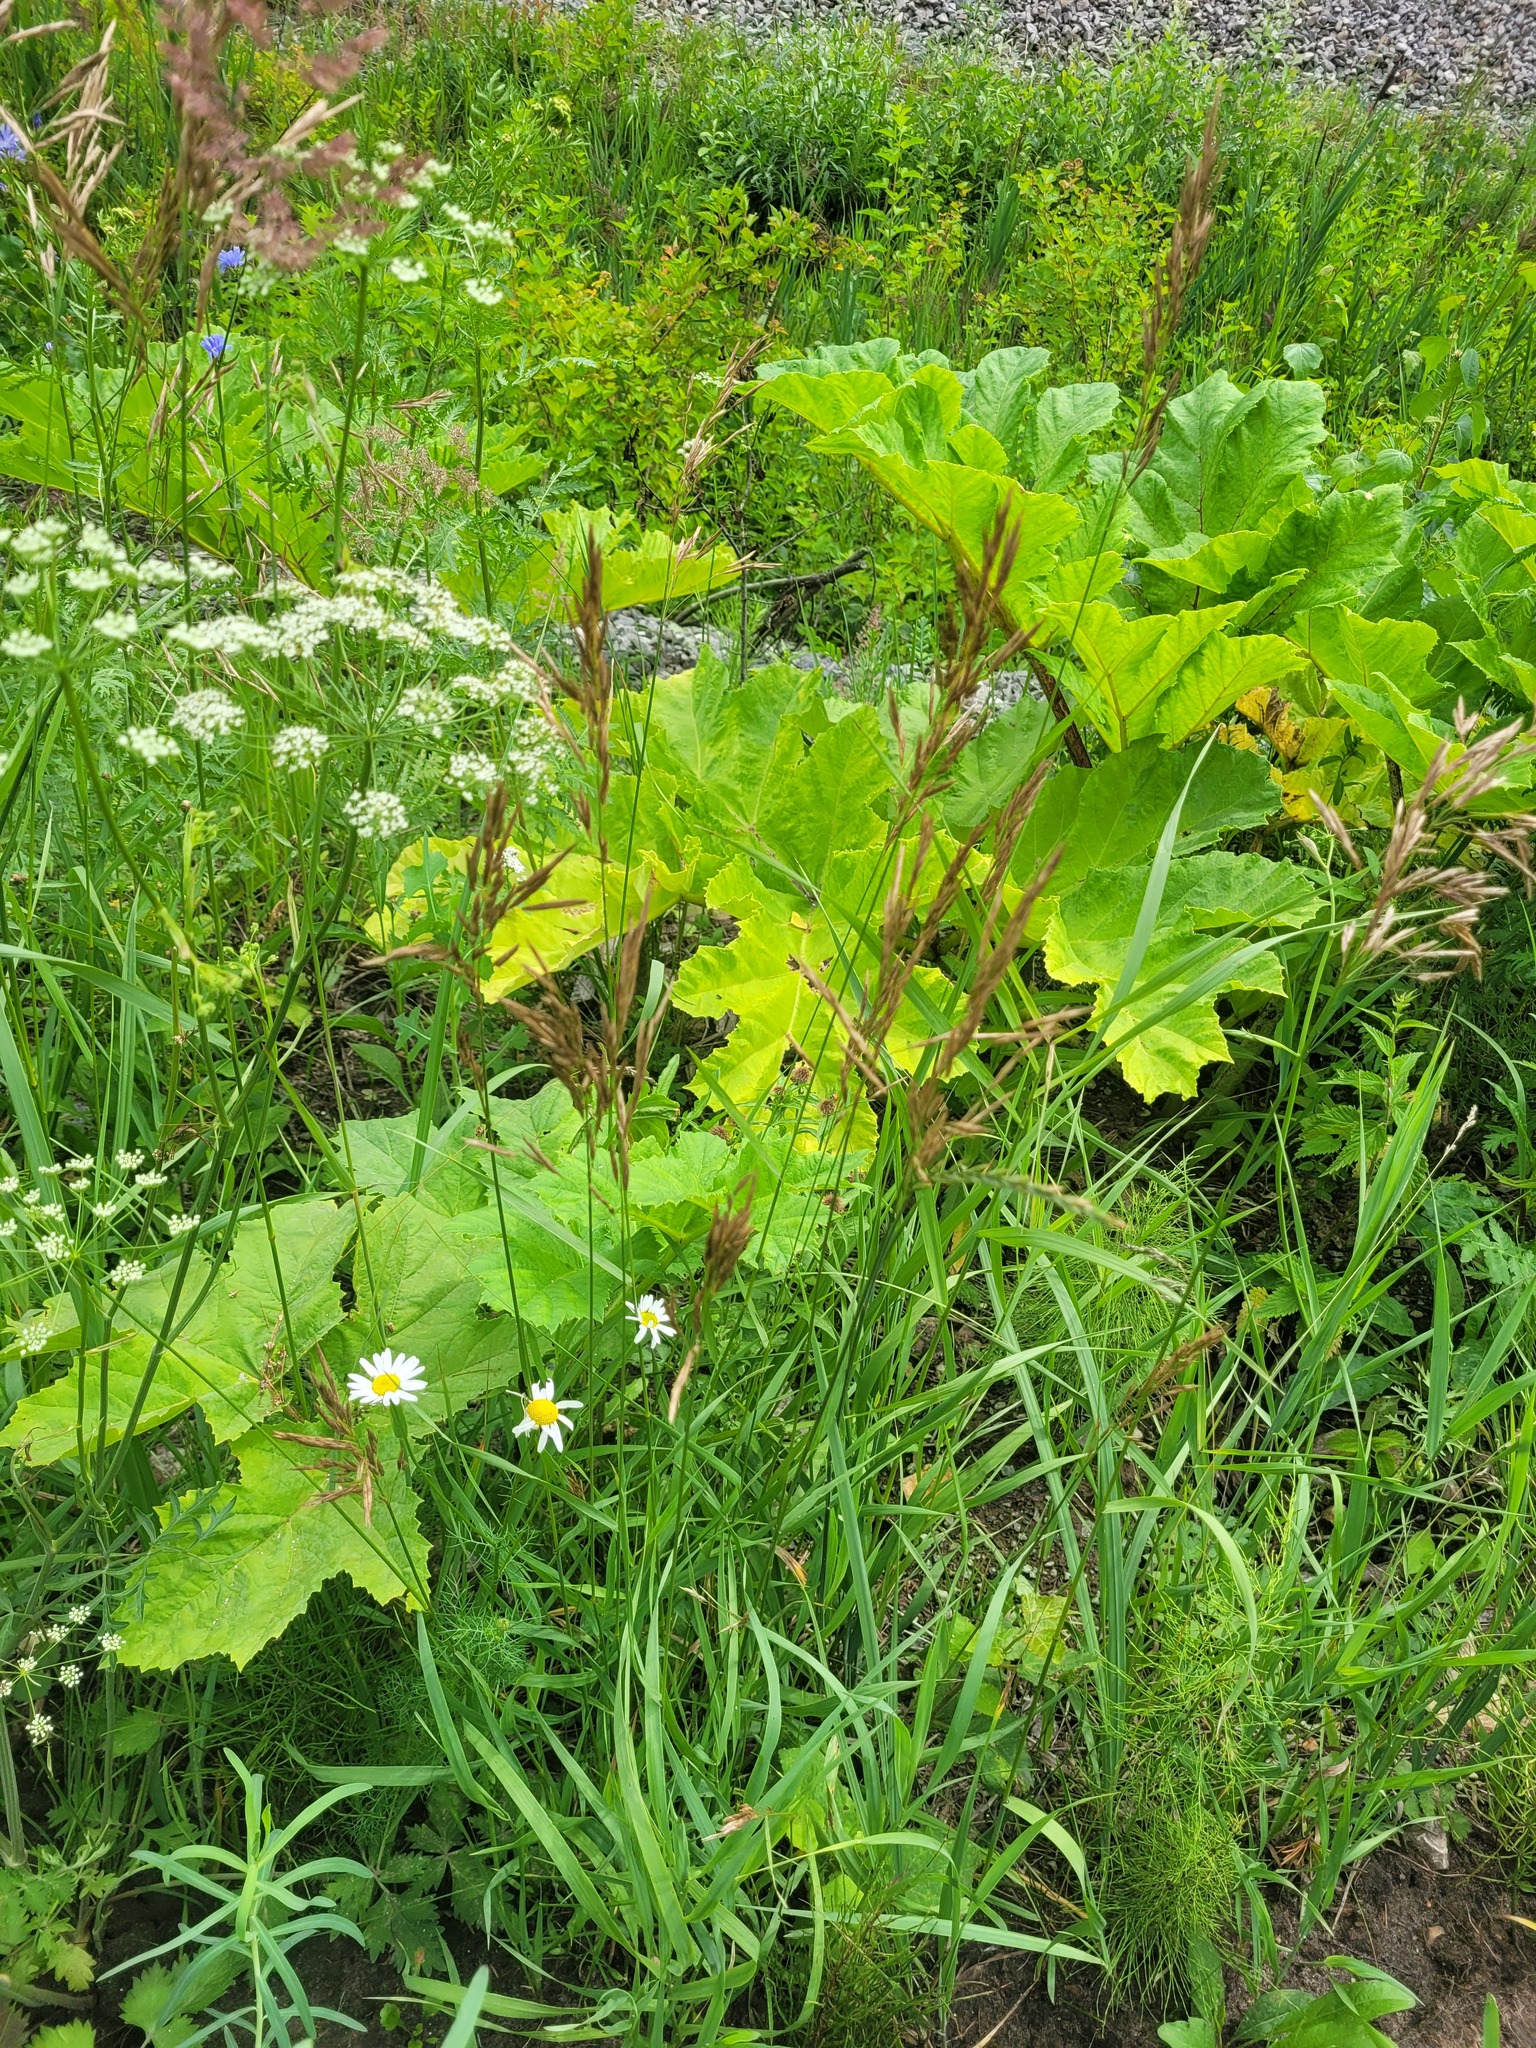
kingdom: Plantae
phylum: Tracheophyta
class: Liliopsida
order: Poales
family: Poaceae
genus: Bromus
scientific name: Bromus inermis
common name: Smooth brome
